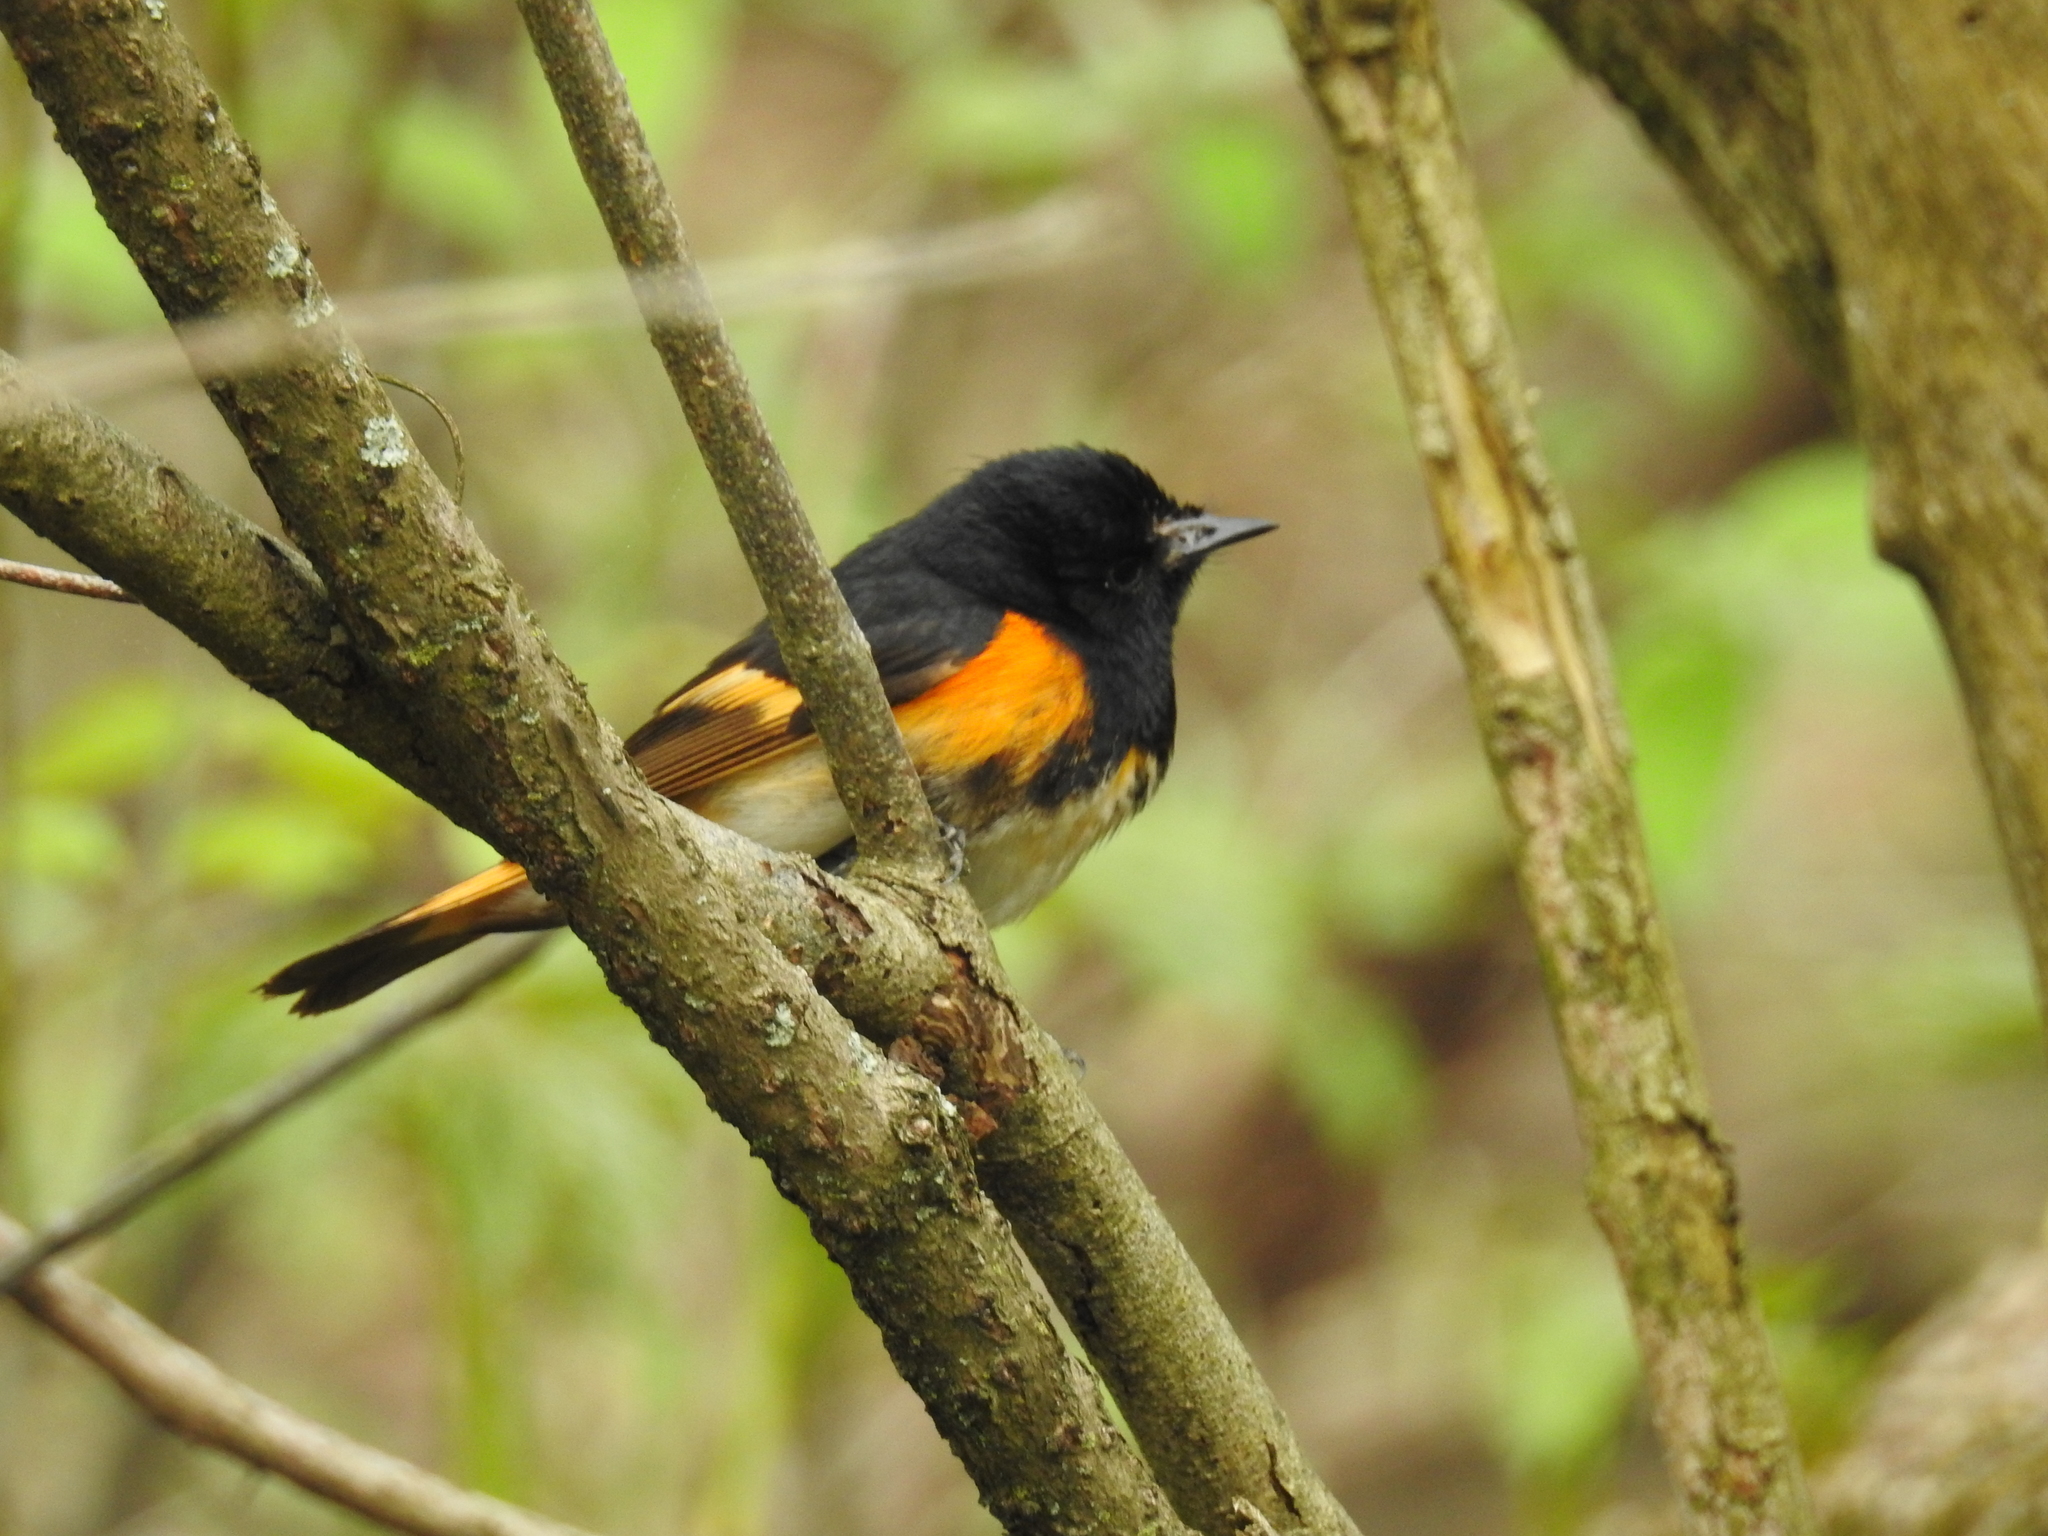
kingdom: Animalia
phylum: Chordata
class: Aves
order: Passeriformes
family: Parulidae
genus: Setophaga
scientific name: Setophaga ruticilla
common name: American redstart
